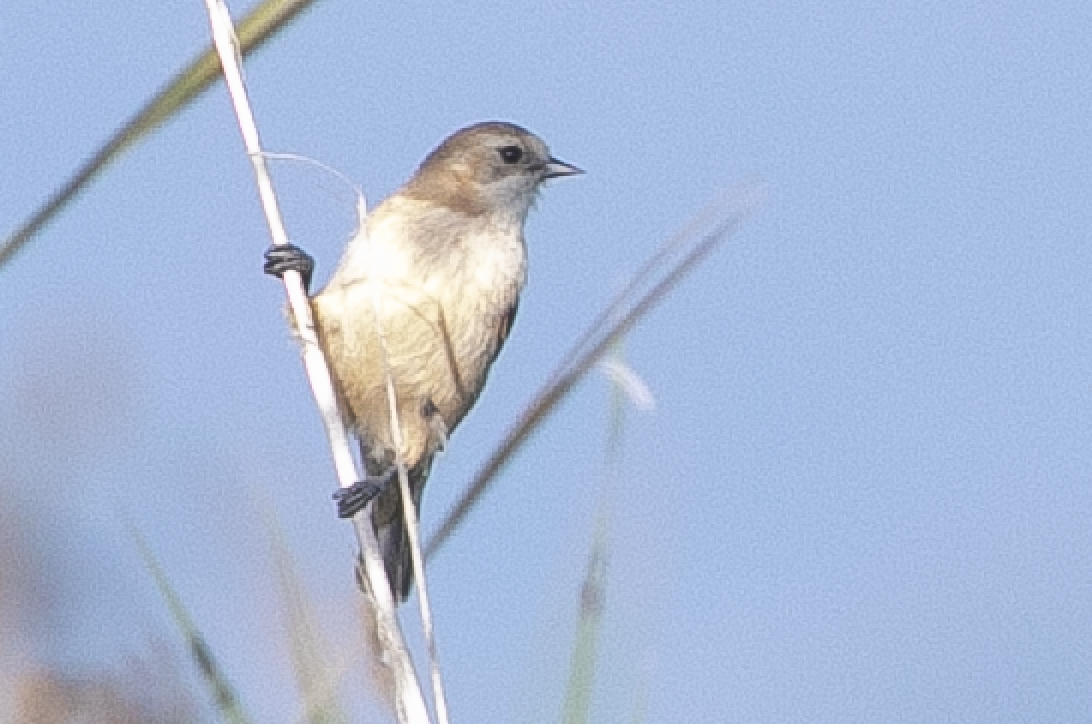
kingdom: Animalia
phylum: Chordata
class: Aves
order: Passeriformes
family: Remizidae
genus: Remiz
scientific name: Remiz pendulinus
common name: Eurasian penduline tit
